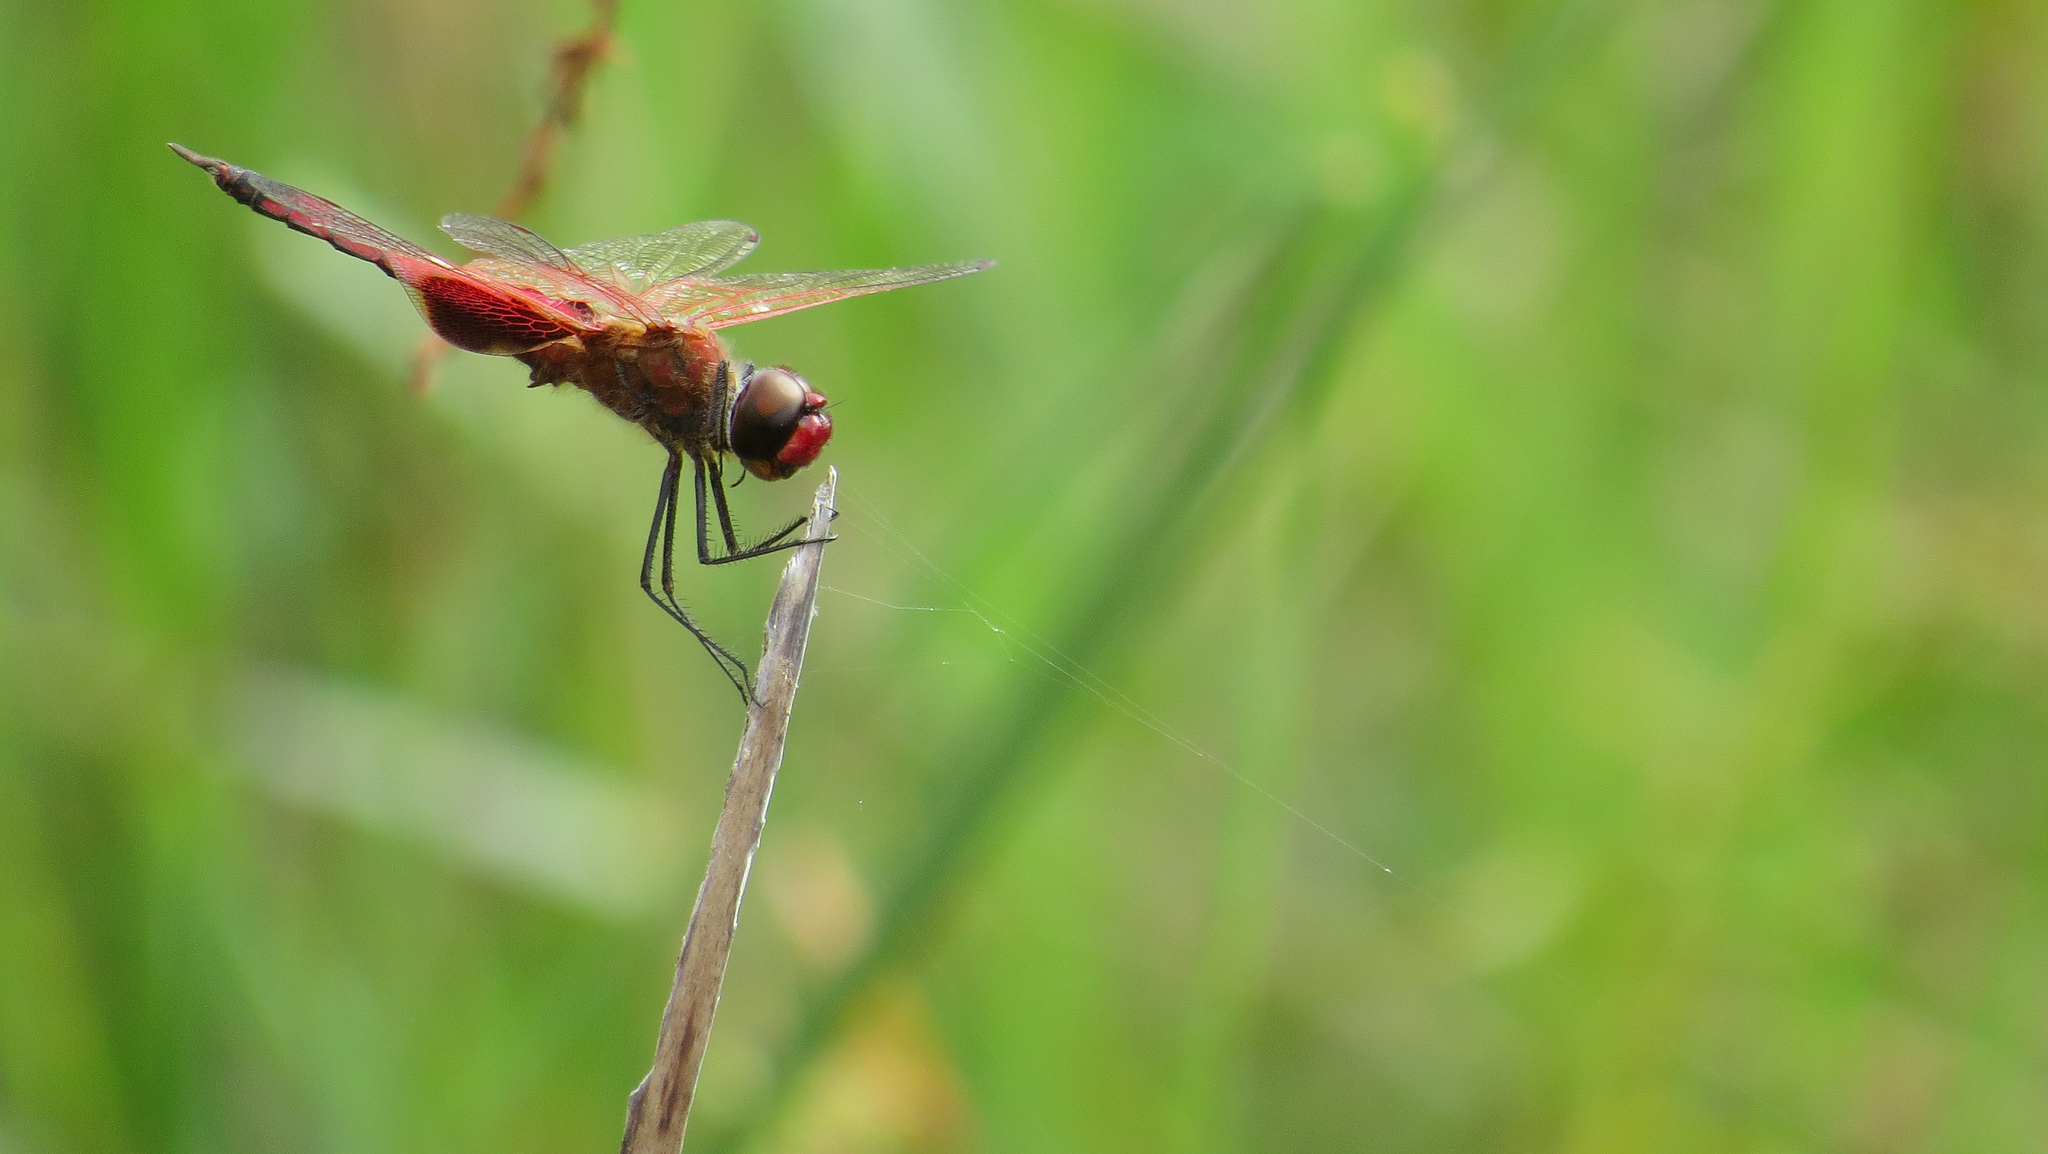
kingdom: Animalia
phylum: Arthropoda
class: Insecta
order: Odonata
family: Libellulidae
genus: Tramea
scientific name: Tramea stenoloba
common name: Narrow-lobed glider
